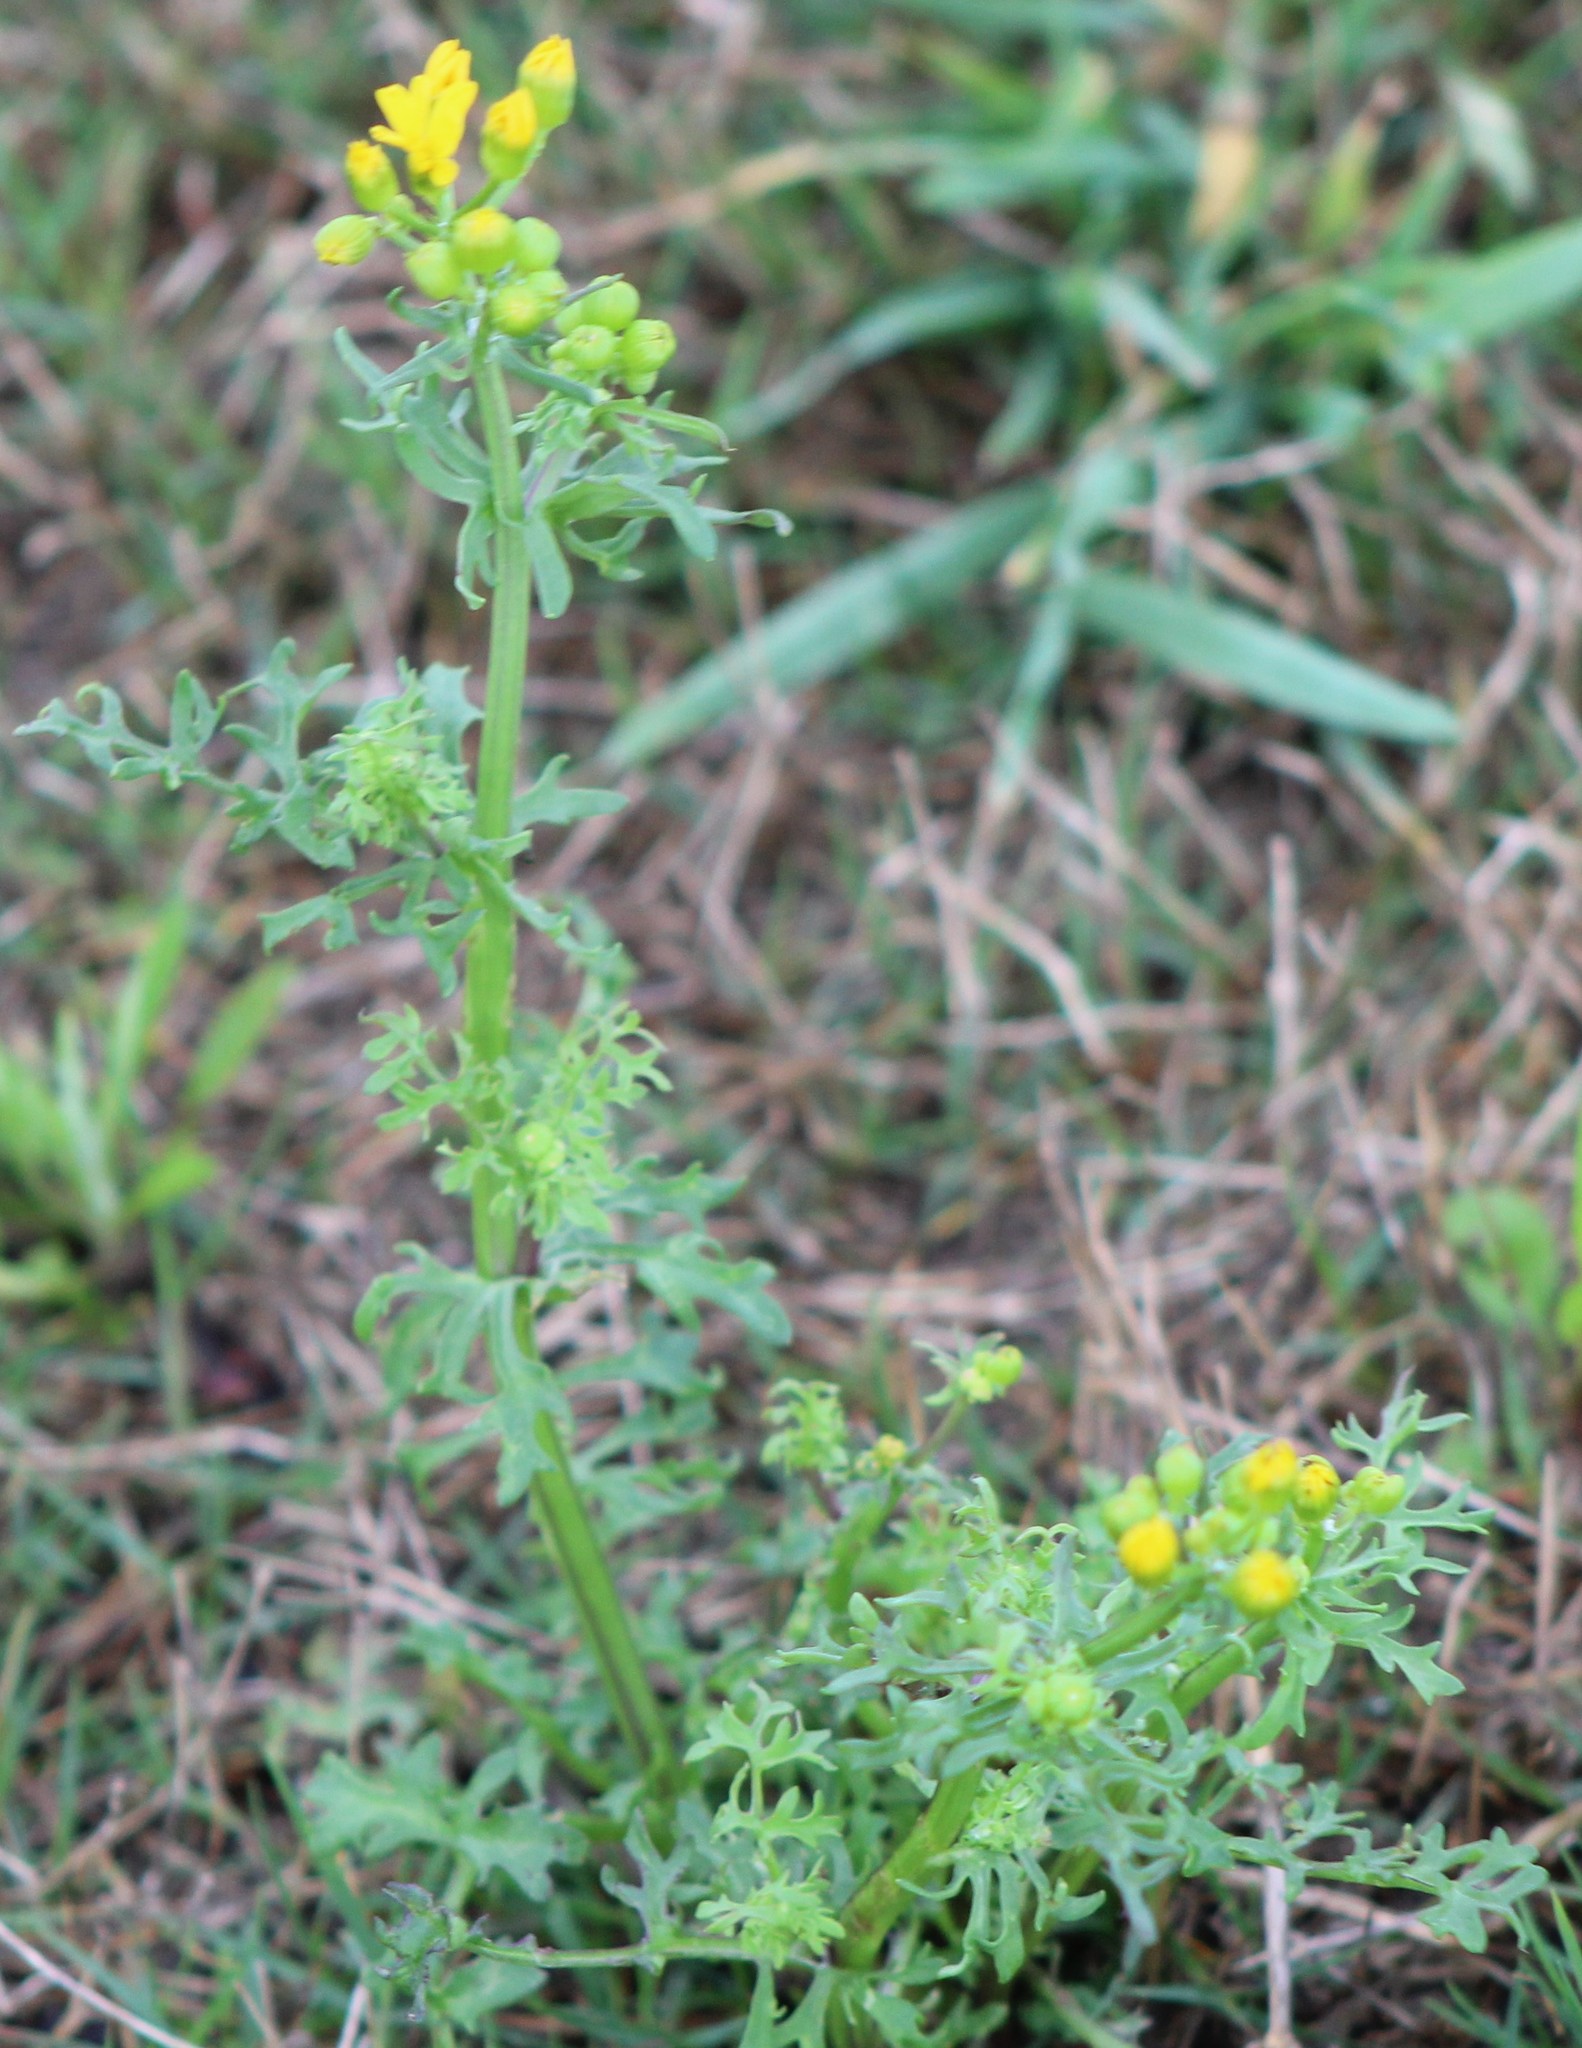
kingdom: Plantae
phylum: Tracheophyta
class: Magnoliopsida
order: Asterales
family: Asteraceae
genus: Packera
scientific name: Packera tampicana
